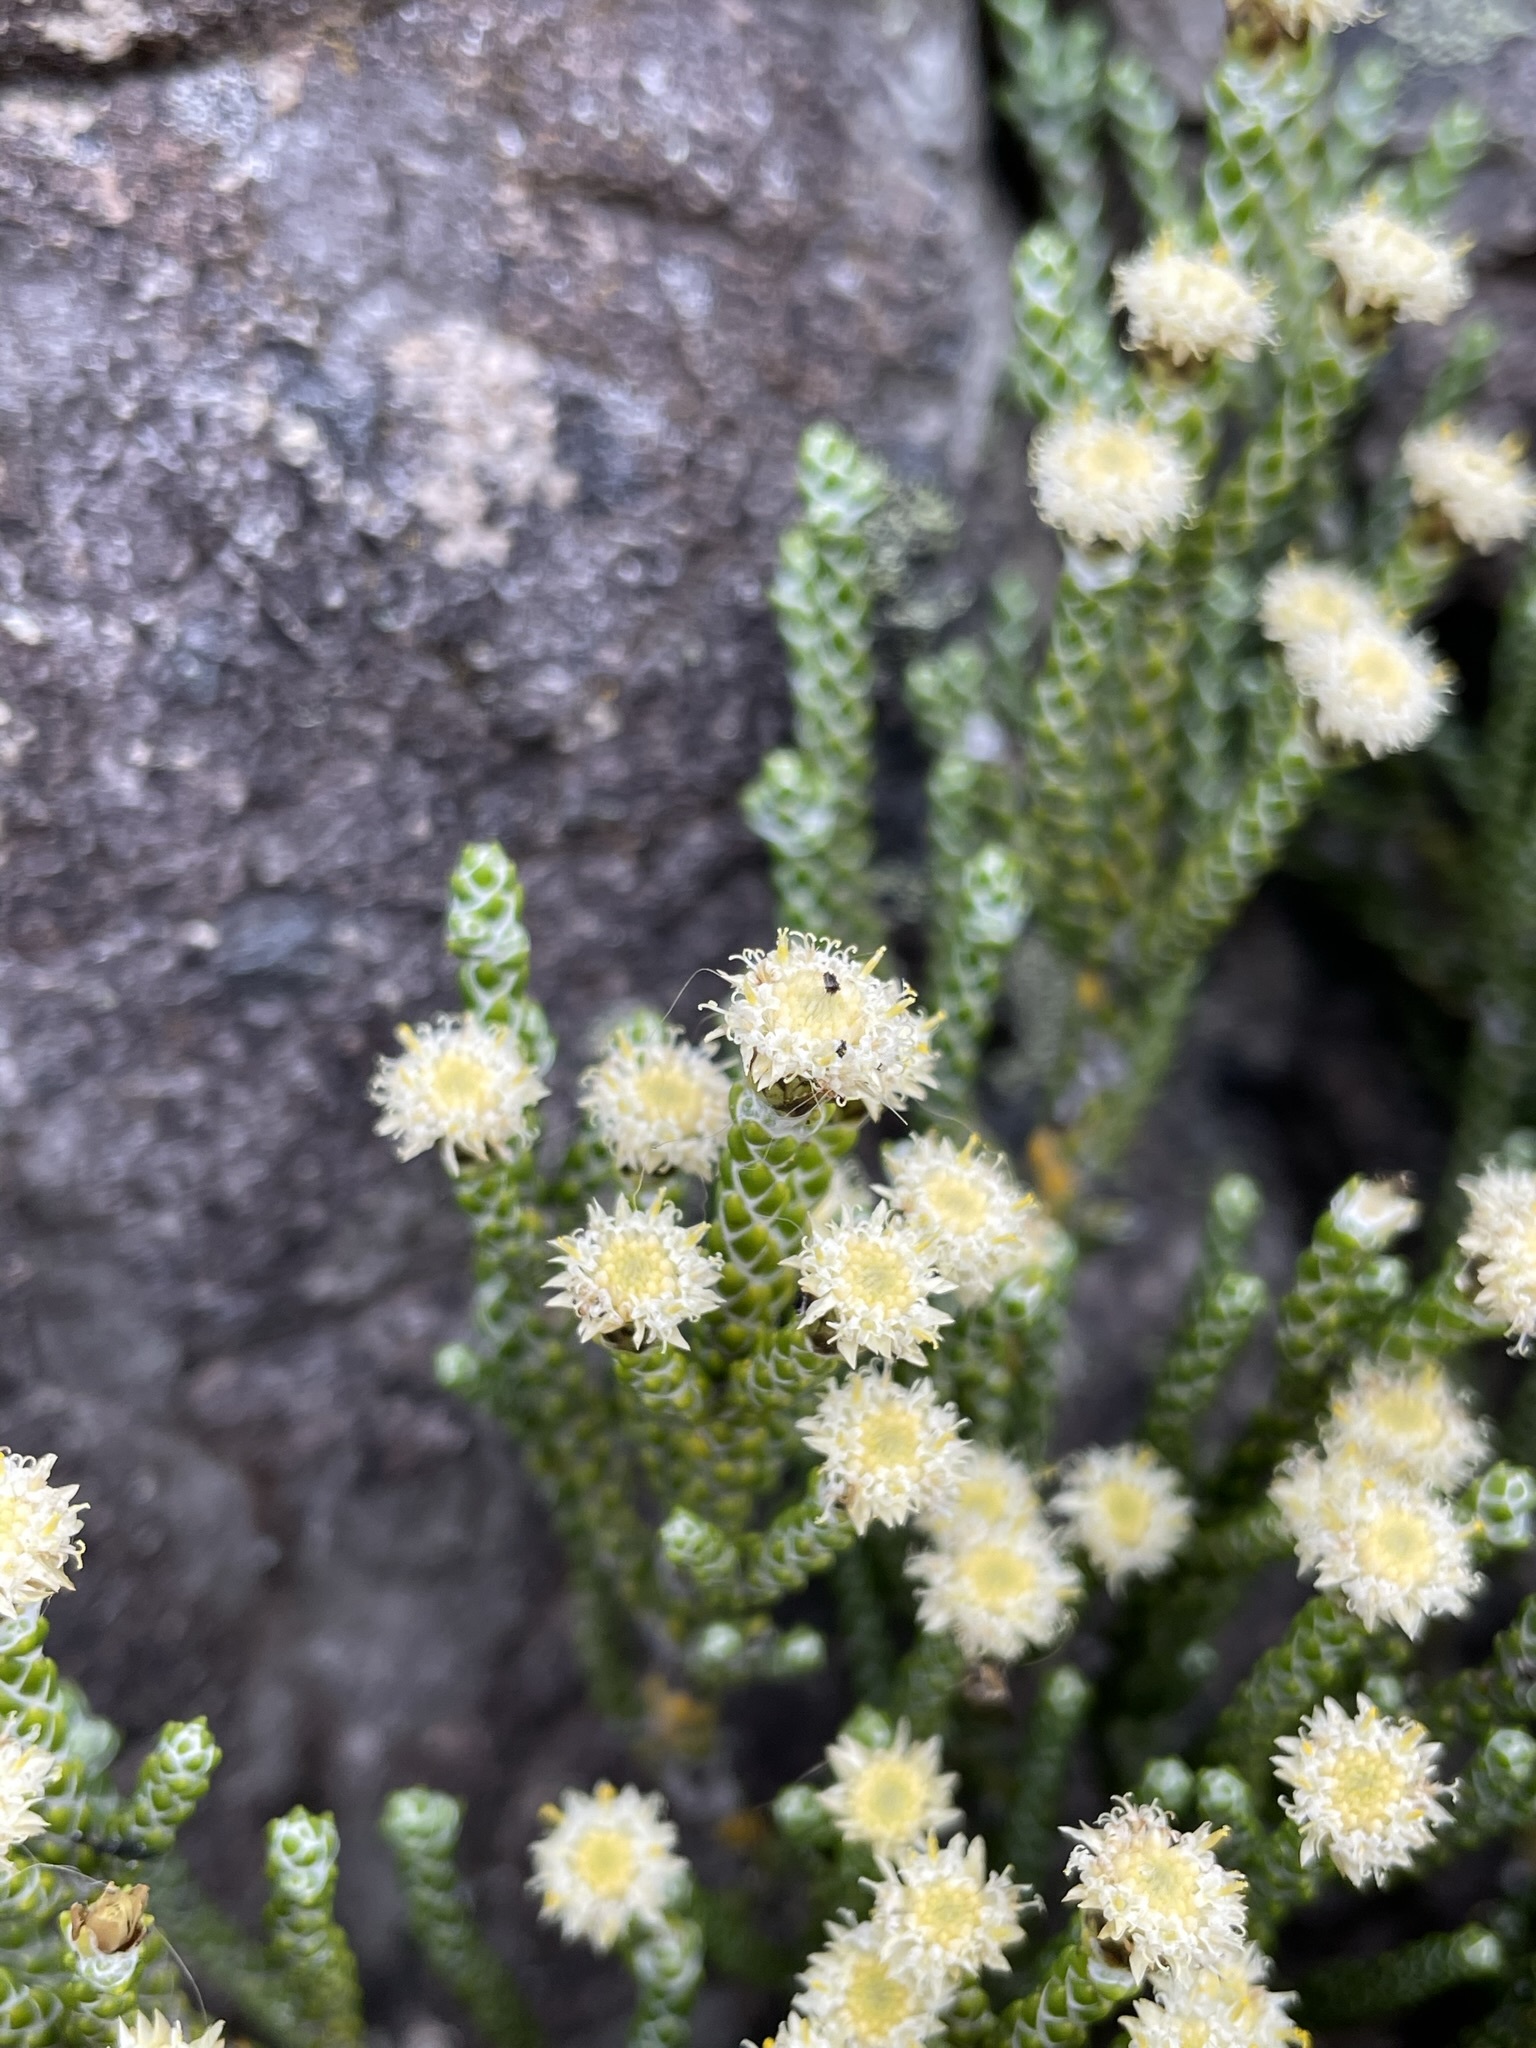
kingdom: Plantae
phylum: Tracheophyta
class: Magnoliopsida
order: Asterales
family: Asteraceae
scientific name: Asteraceae
